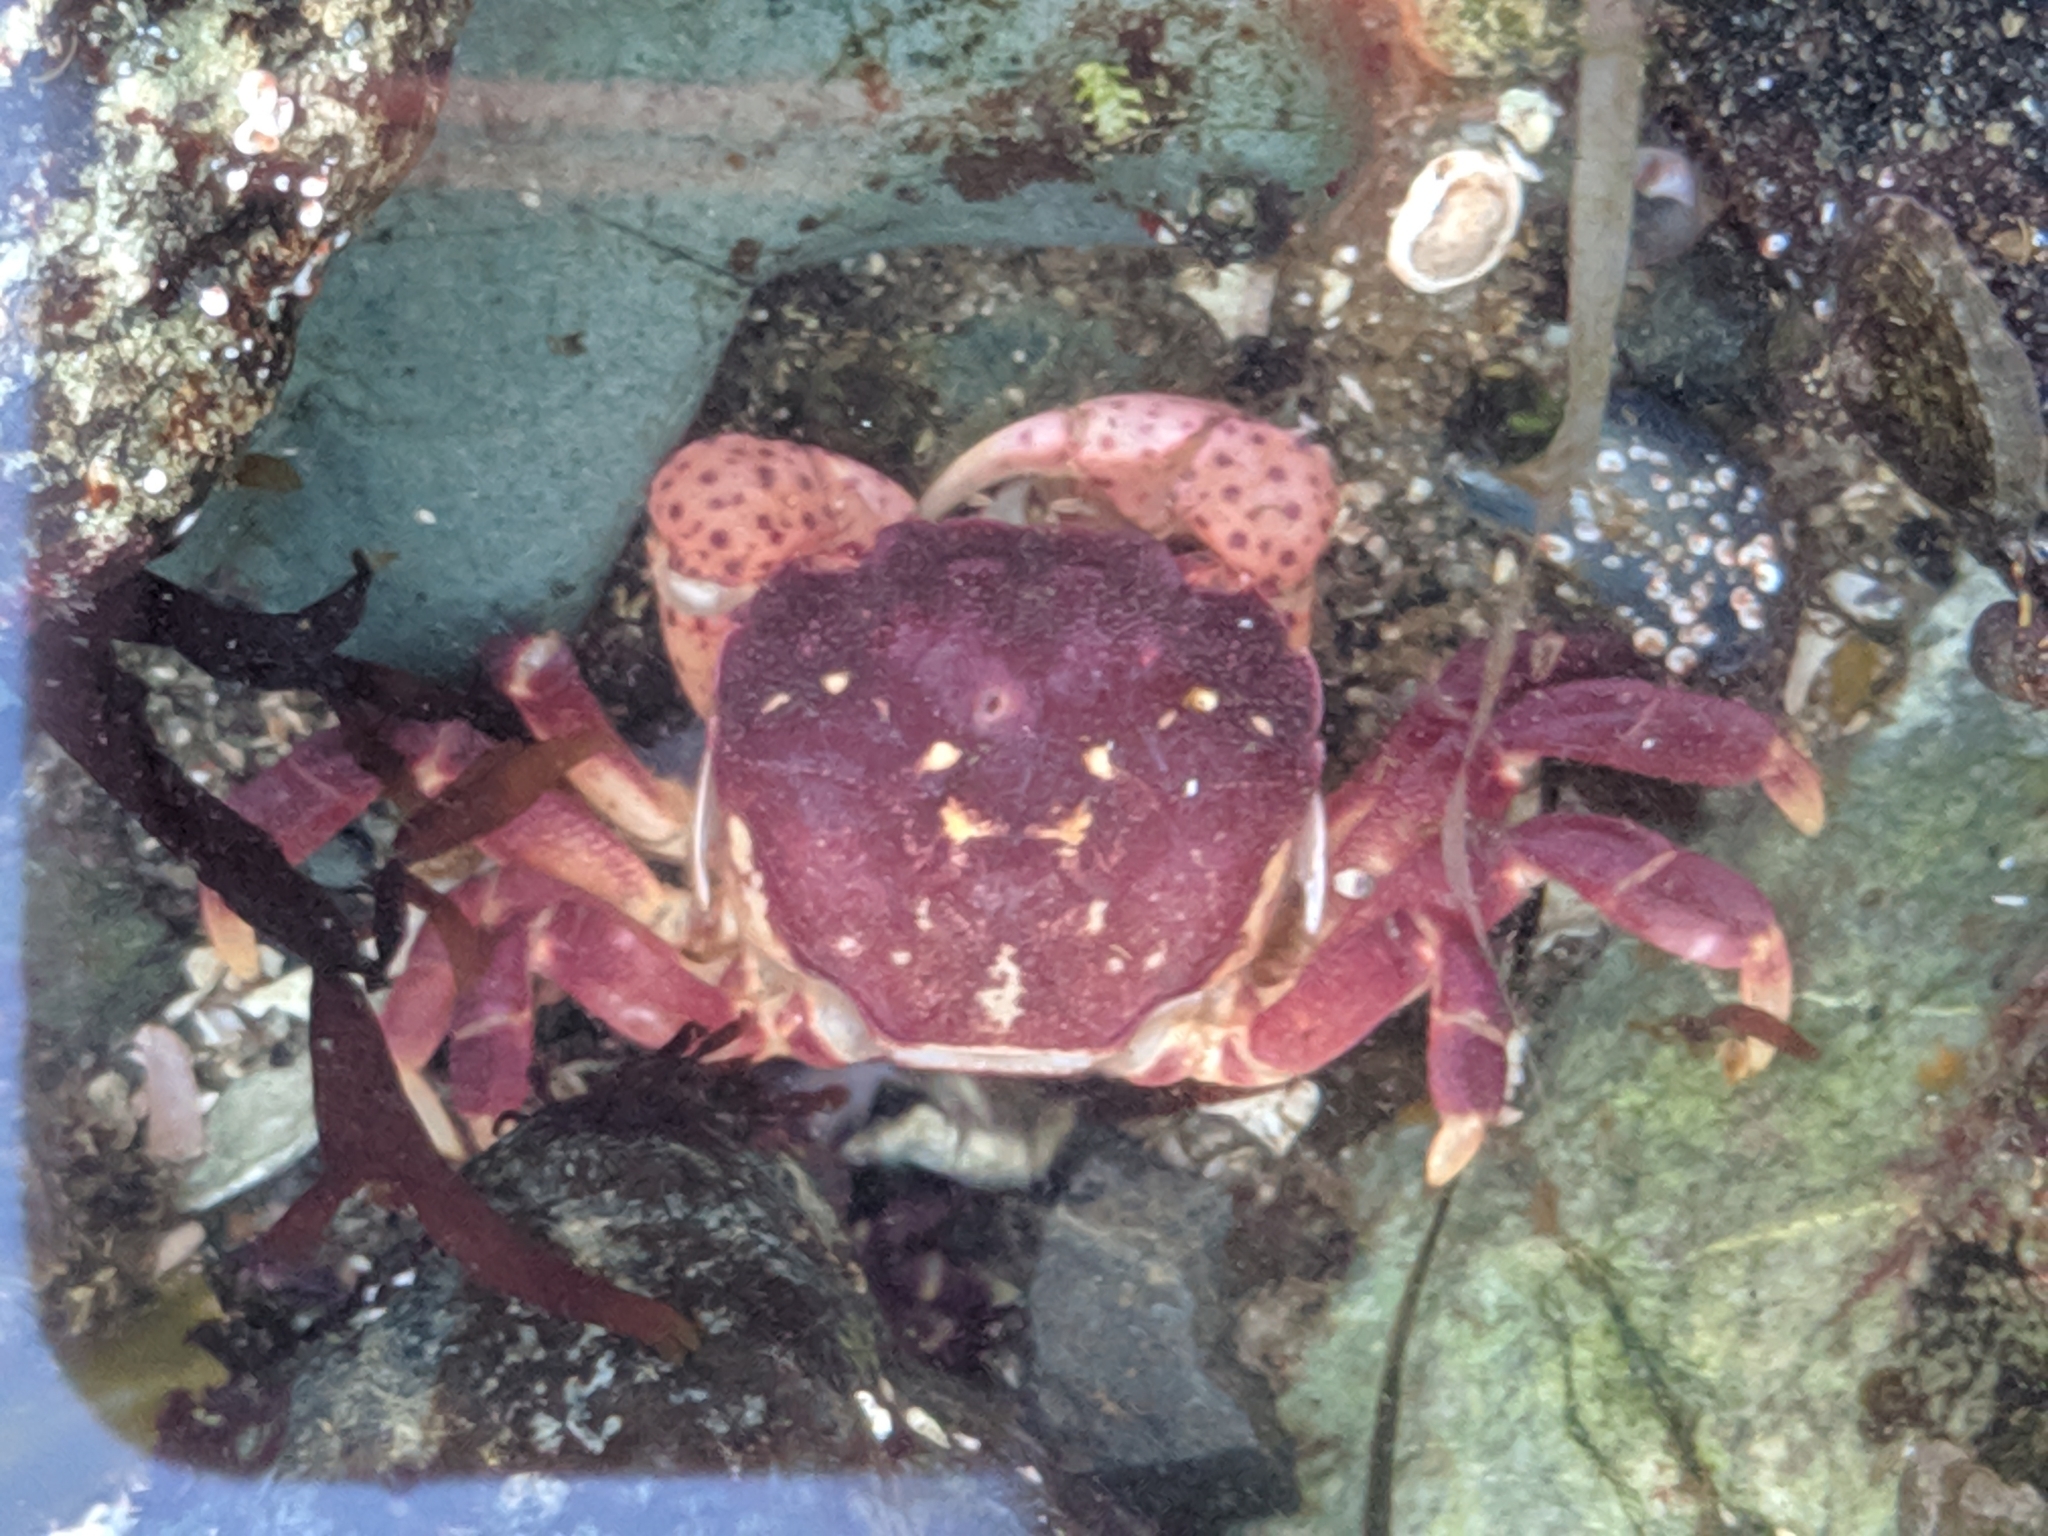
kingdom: Animalia
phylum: Arthropoda
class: Malacostraca
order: Decapoda
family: Varunidae
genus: Hemigrapsus
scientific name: Hemigrapsus nudus
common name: Purple shore crab
